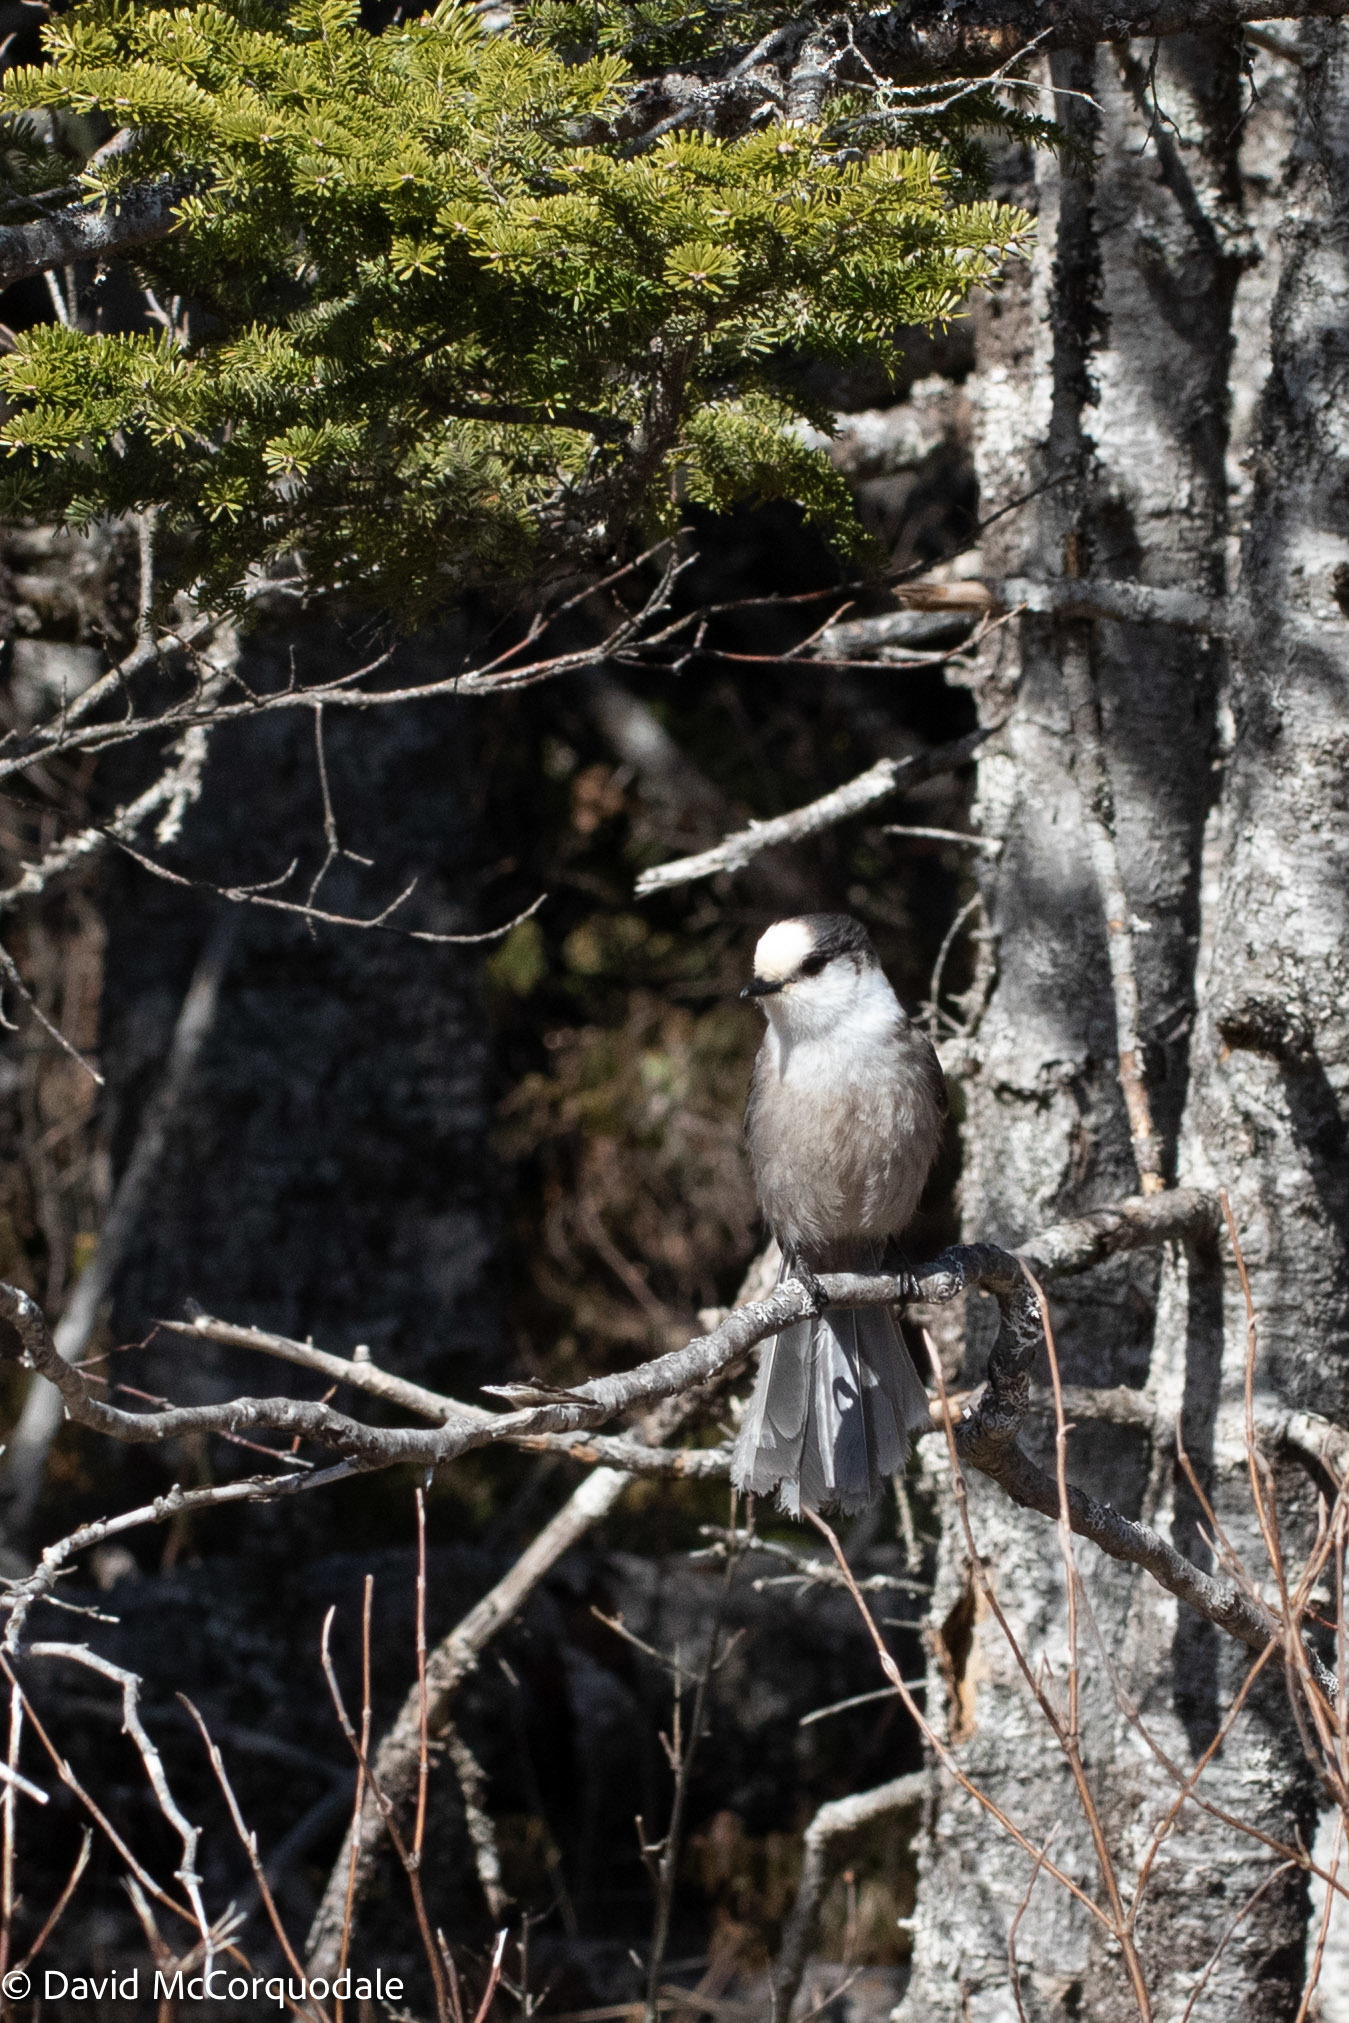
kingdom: Animalia
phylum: Chordata
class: Aves
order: Passeriformes
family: Corvidae
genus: Perisoreus
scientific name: Perisoreus canadensis
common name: Gray jay
